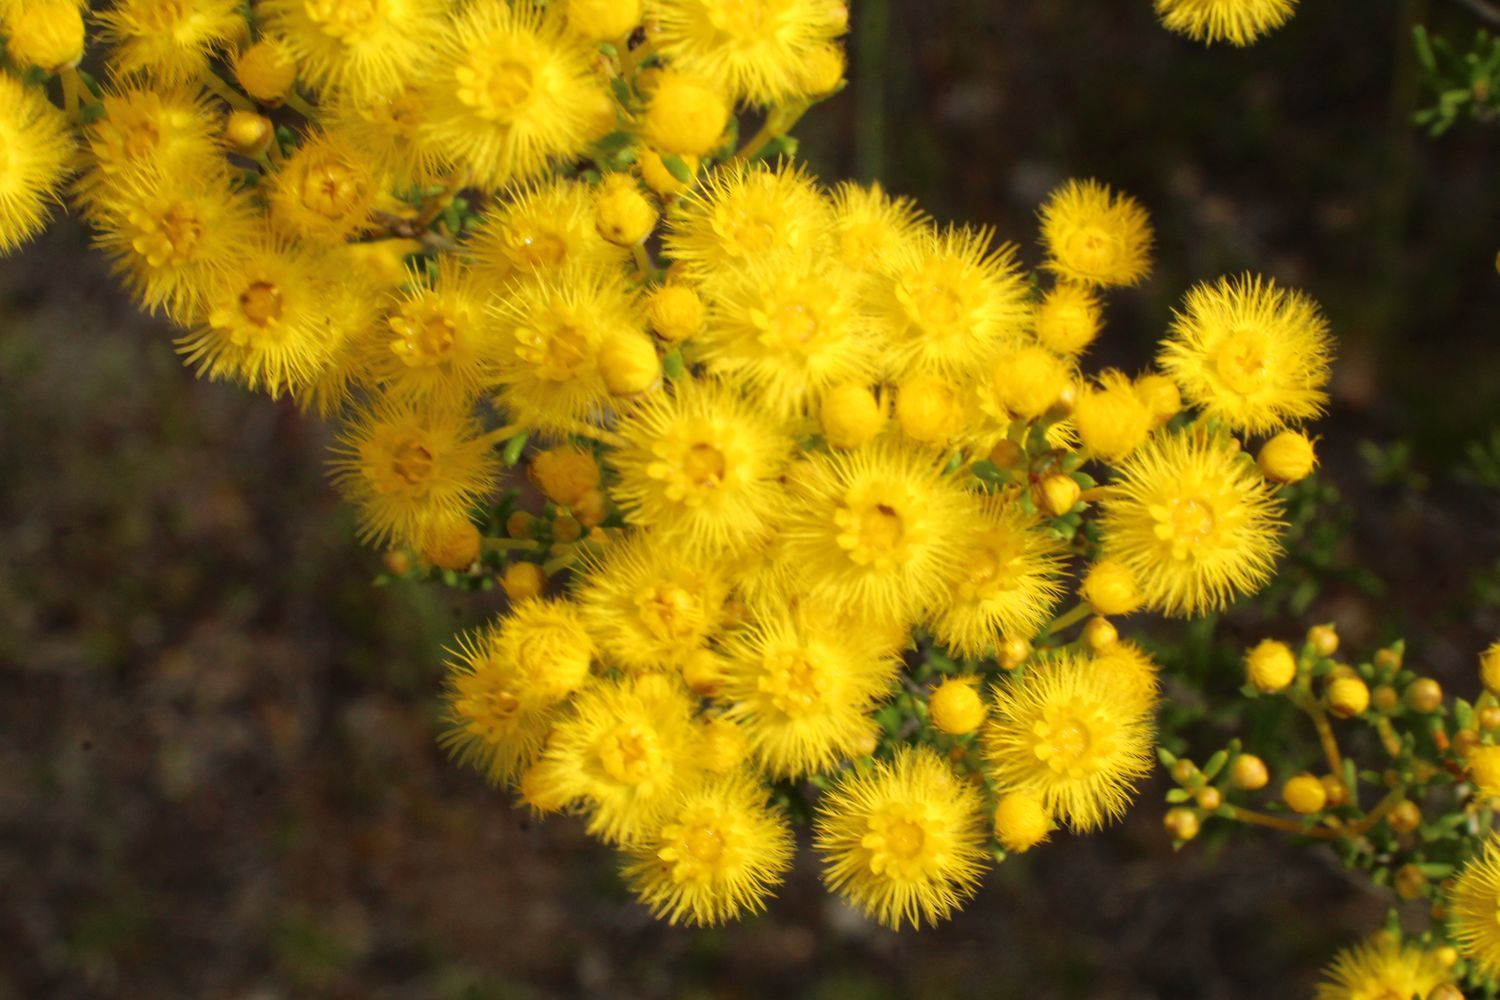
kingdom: Plantae
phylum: Tracheophyta
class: Magnoliopsida
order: Myrtales
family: Myrtaceae
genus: Verticordia
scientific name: Verticordia chrysantha
